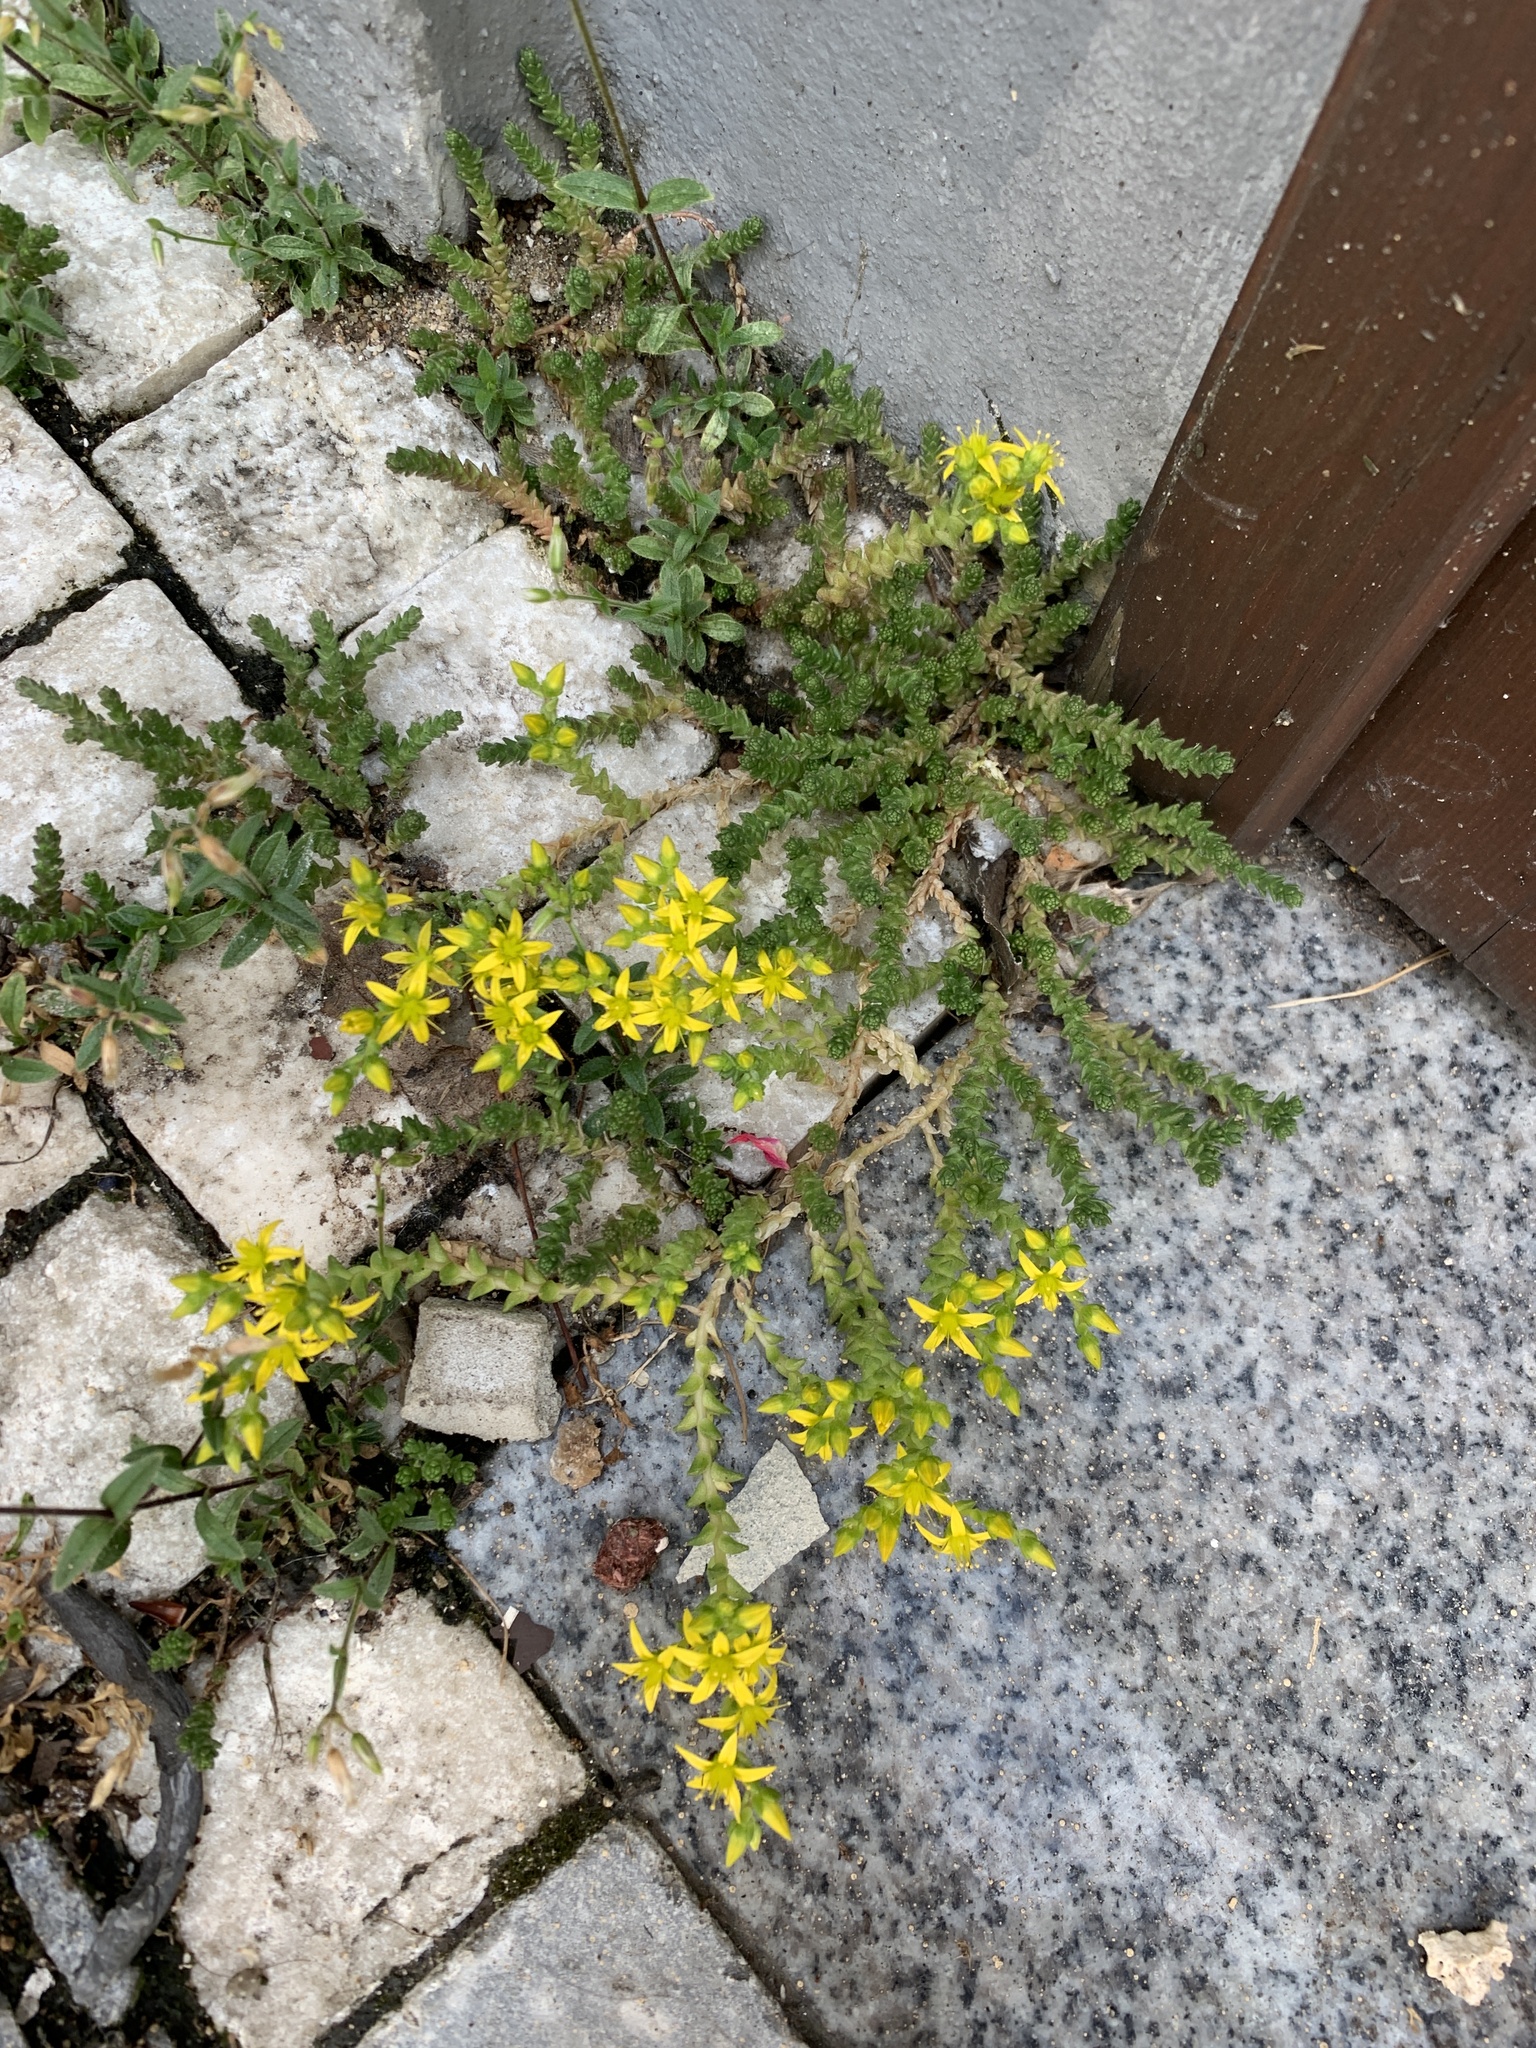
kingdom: Plantae
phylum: Tracheophyta
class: Magnoliopsida
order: Saxifragales
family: Crassulaceae
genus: Sedum
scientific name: Sedum acre
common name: Biting stonecrop
